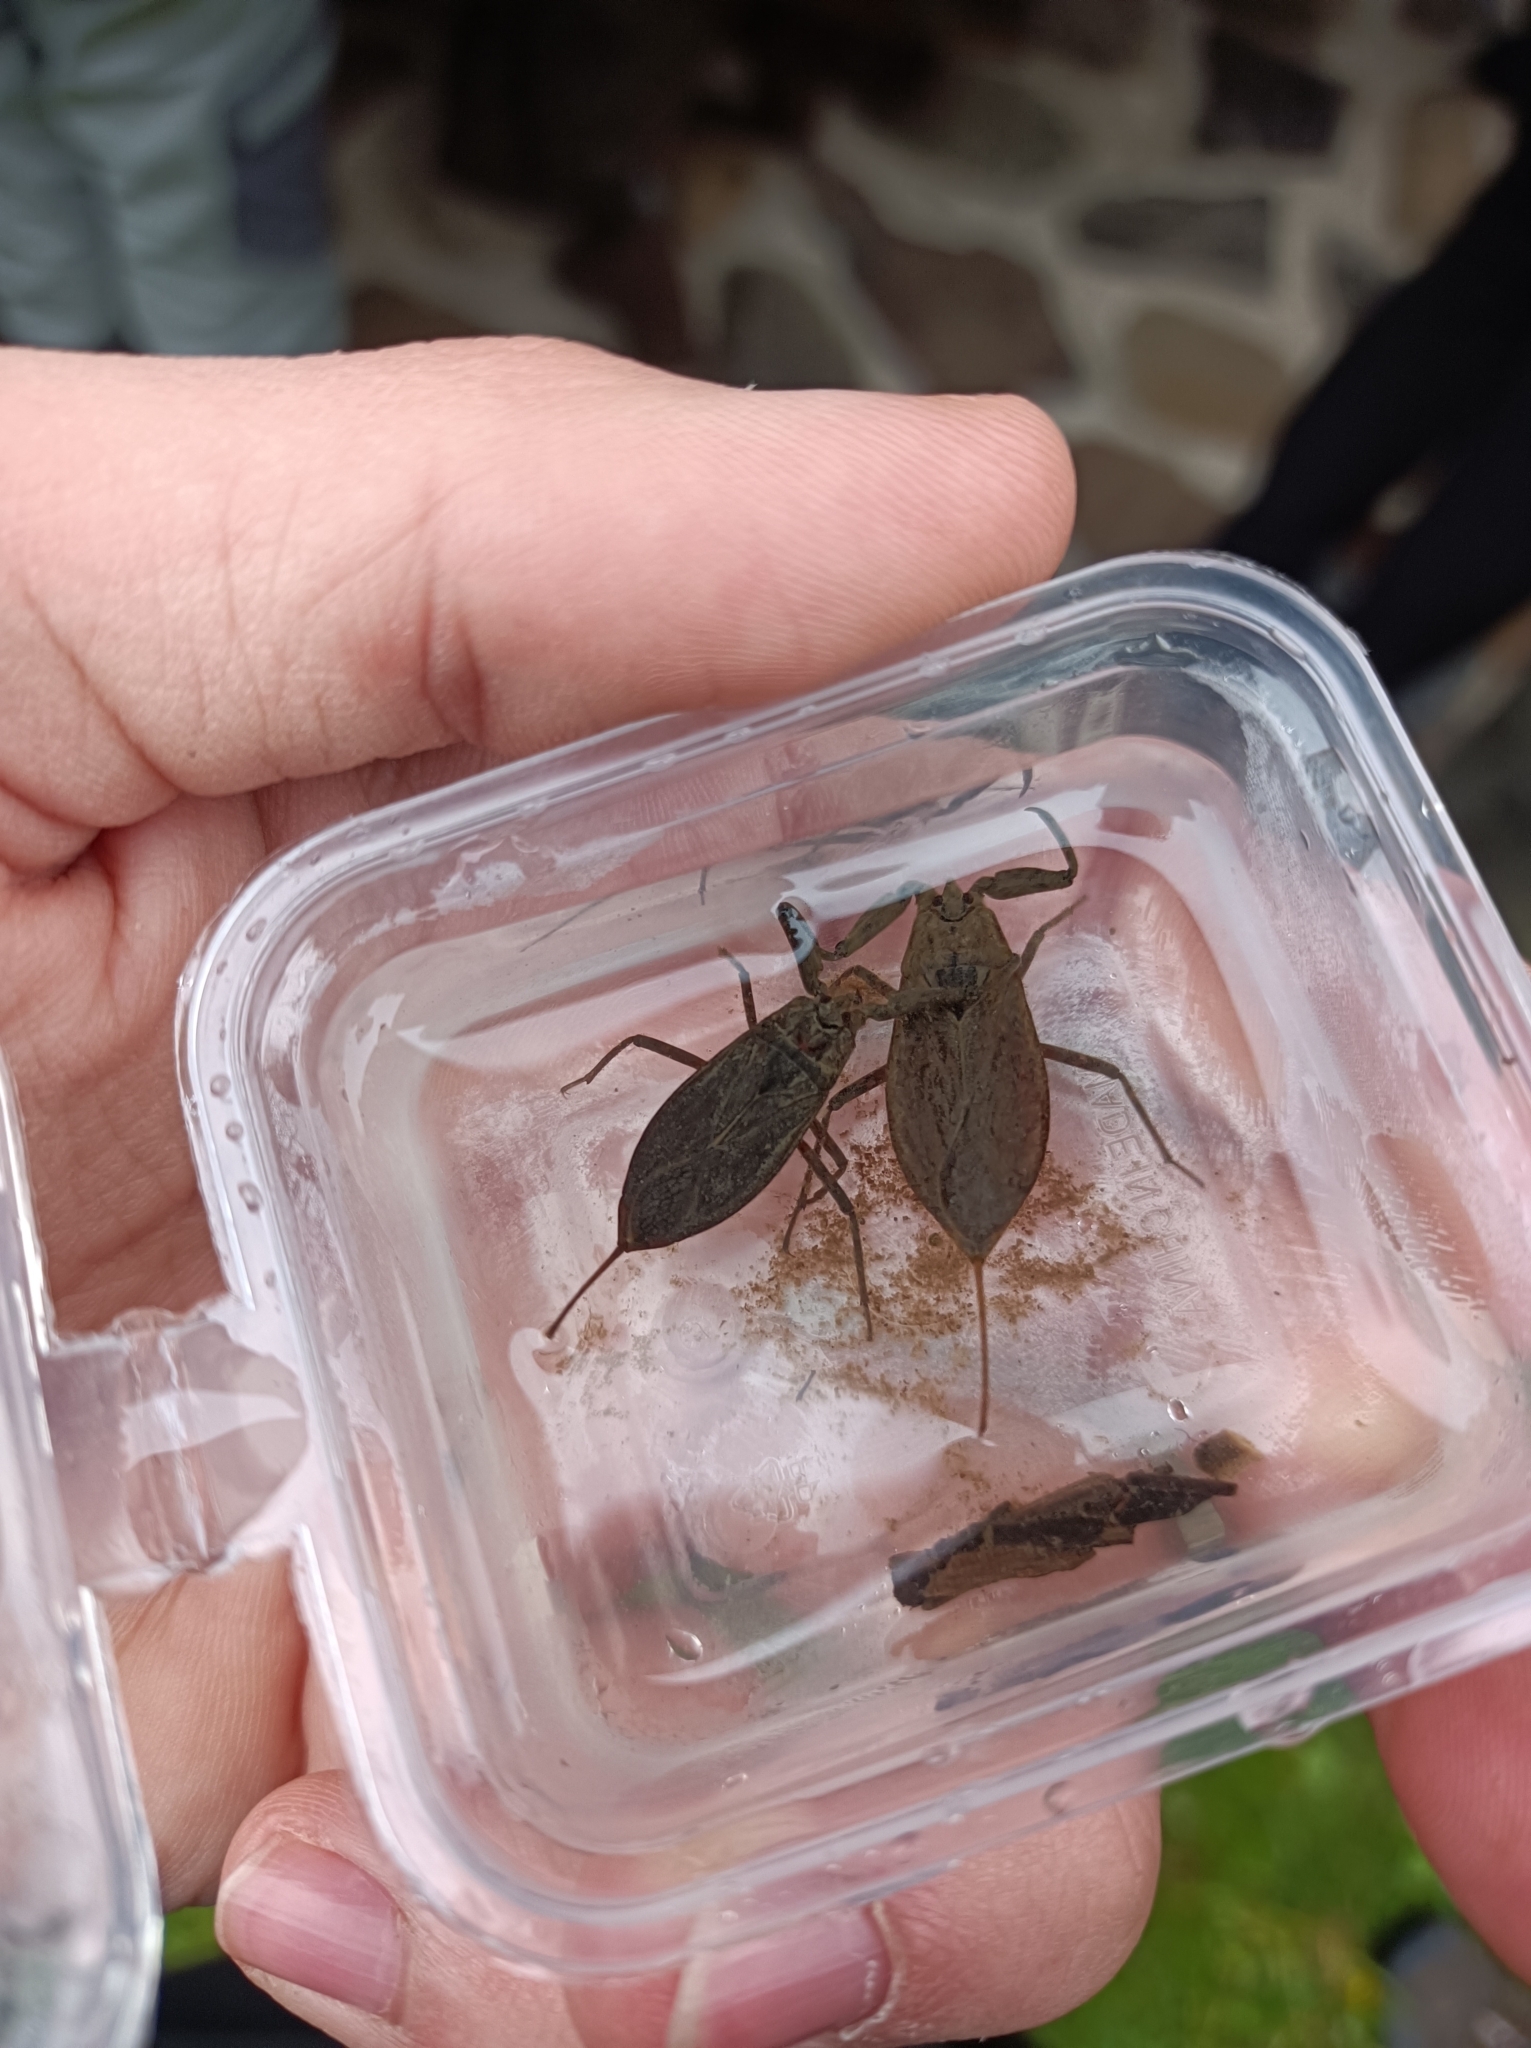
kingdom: Animalia
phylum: Arthropoda
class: Insecta
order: Hemiptera
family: Nepidae
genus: Nepa
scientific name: Nepa cinerea
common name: Water scorpion
